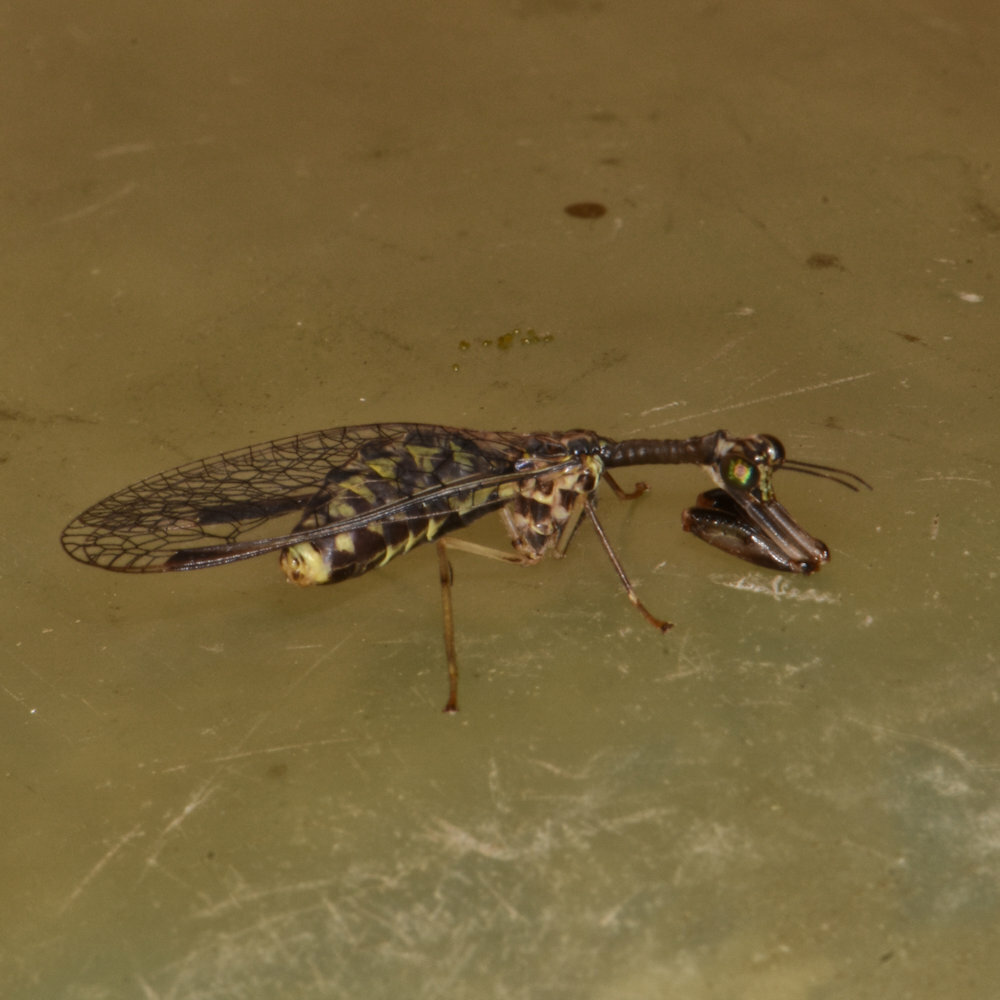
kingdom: Animalia
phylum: Arthropoda
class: Insecta
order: Neuroptera
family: Mantispidae
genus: Dicromantispa
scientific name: Dicromantispa sayi
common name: Say's mantidfly
